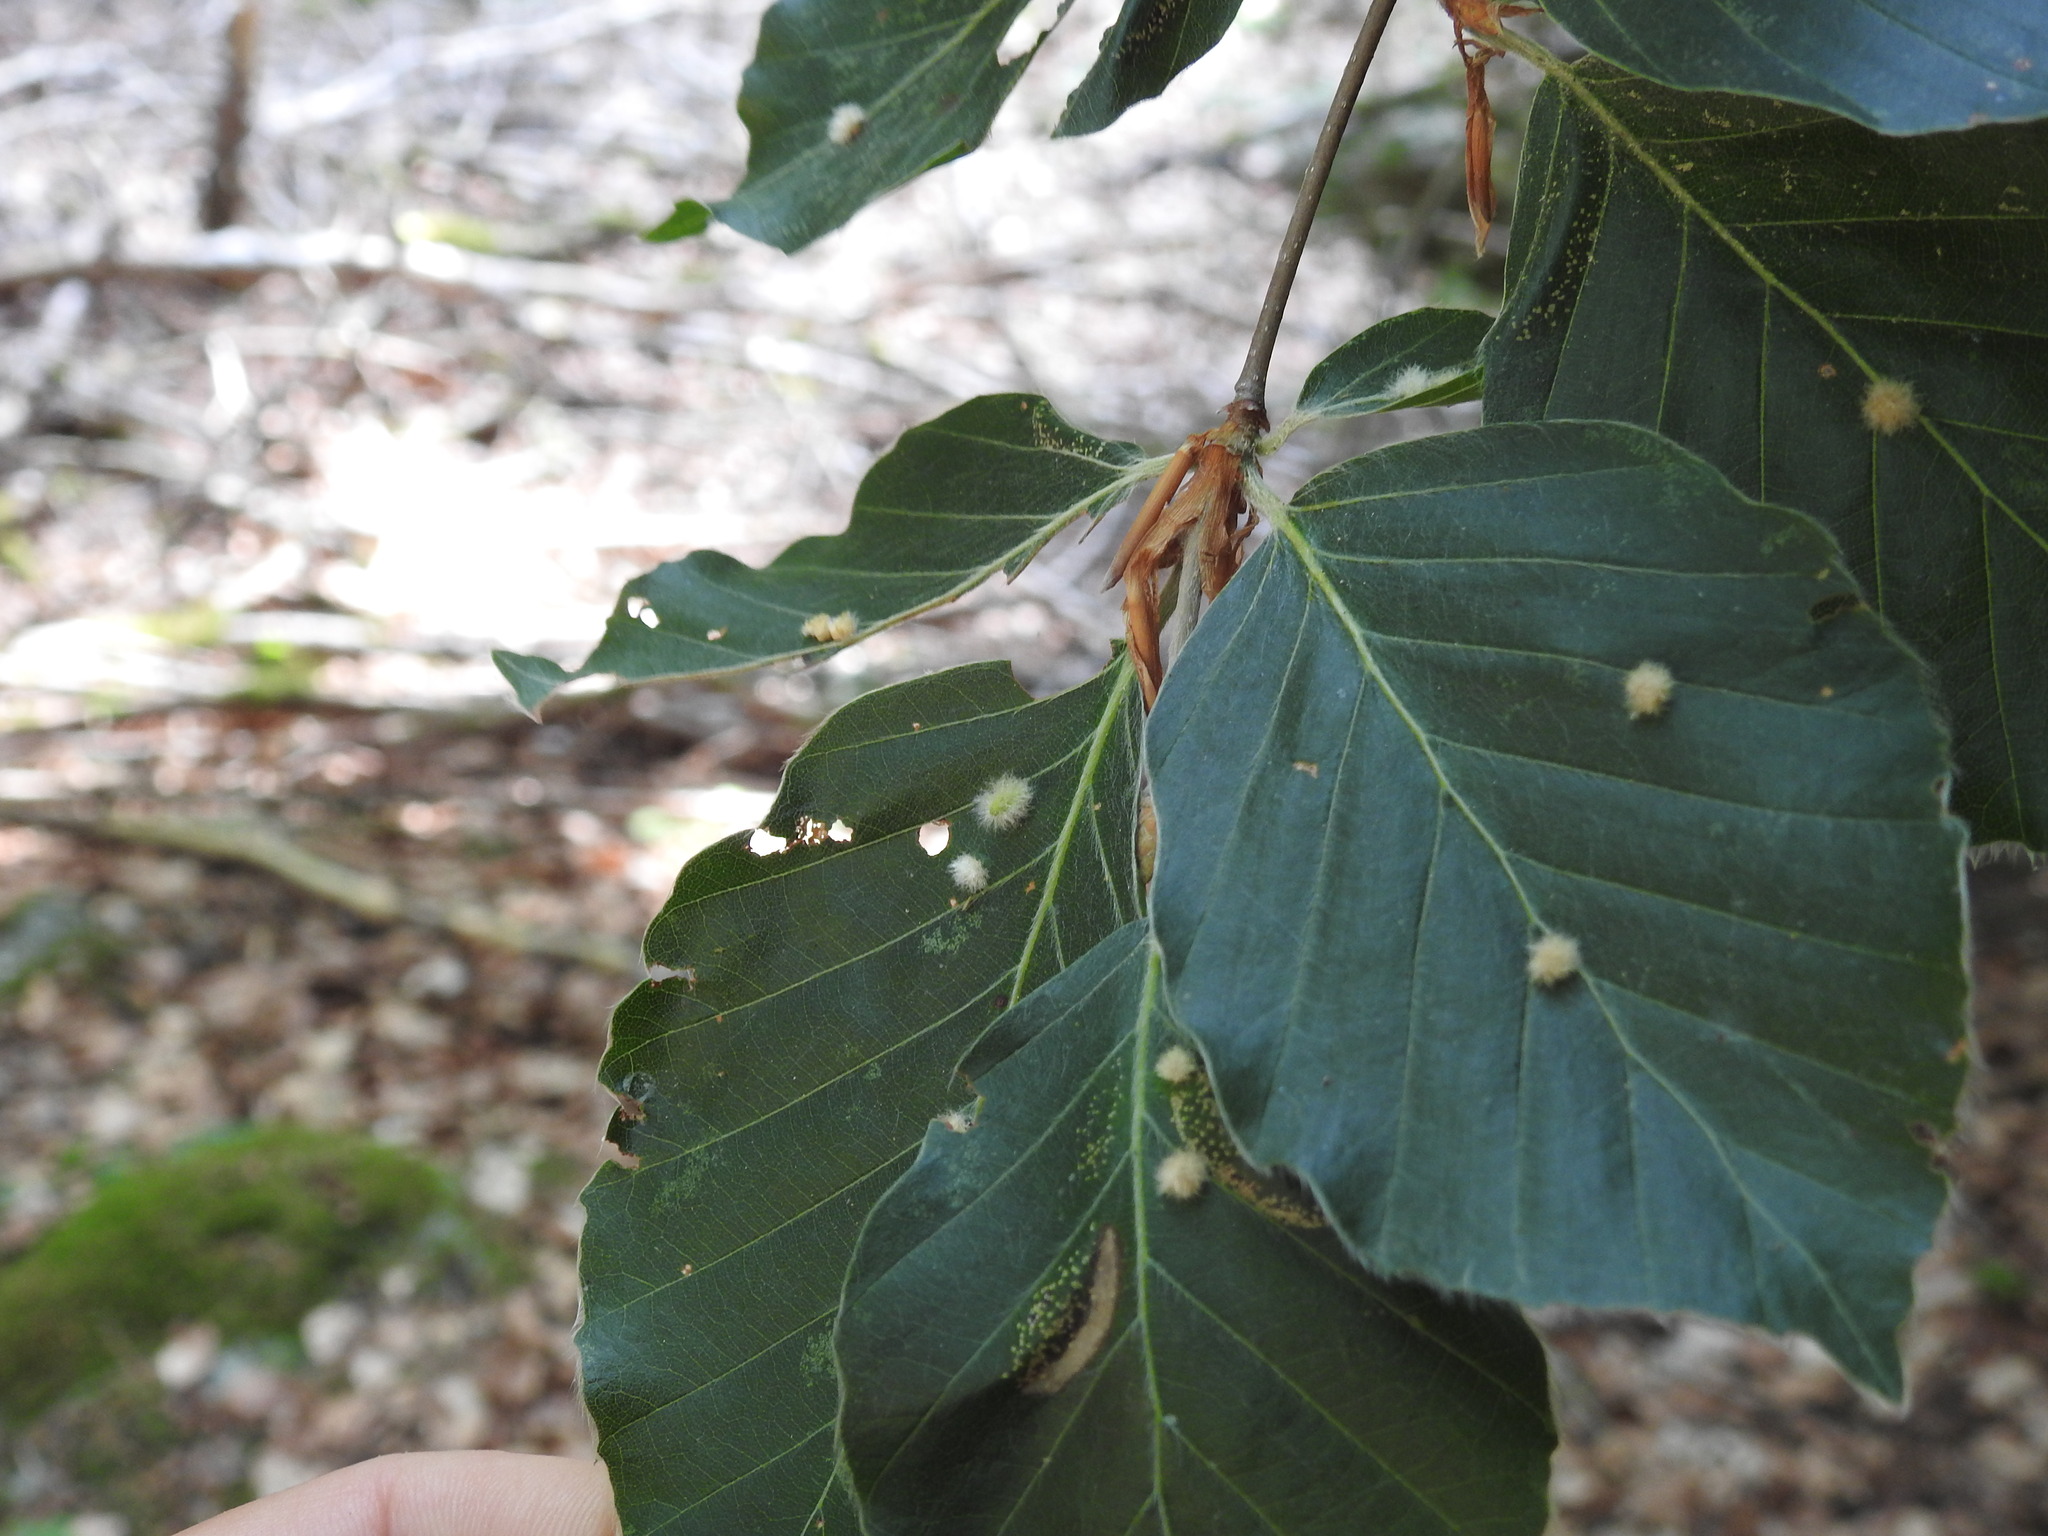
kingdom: Animalia
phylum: Arthropoda
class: Insecta
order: Diptera
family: Cecidomyiidae
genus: Hartigiola
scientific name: Hartigiola annulipes
